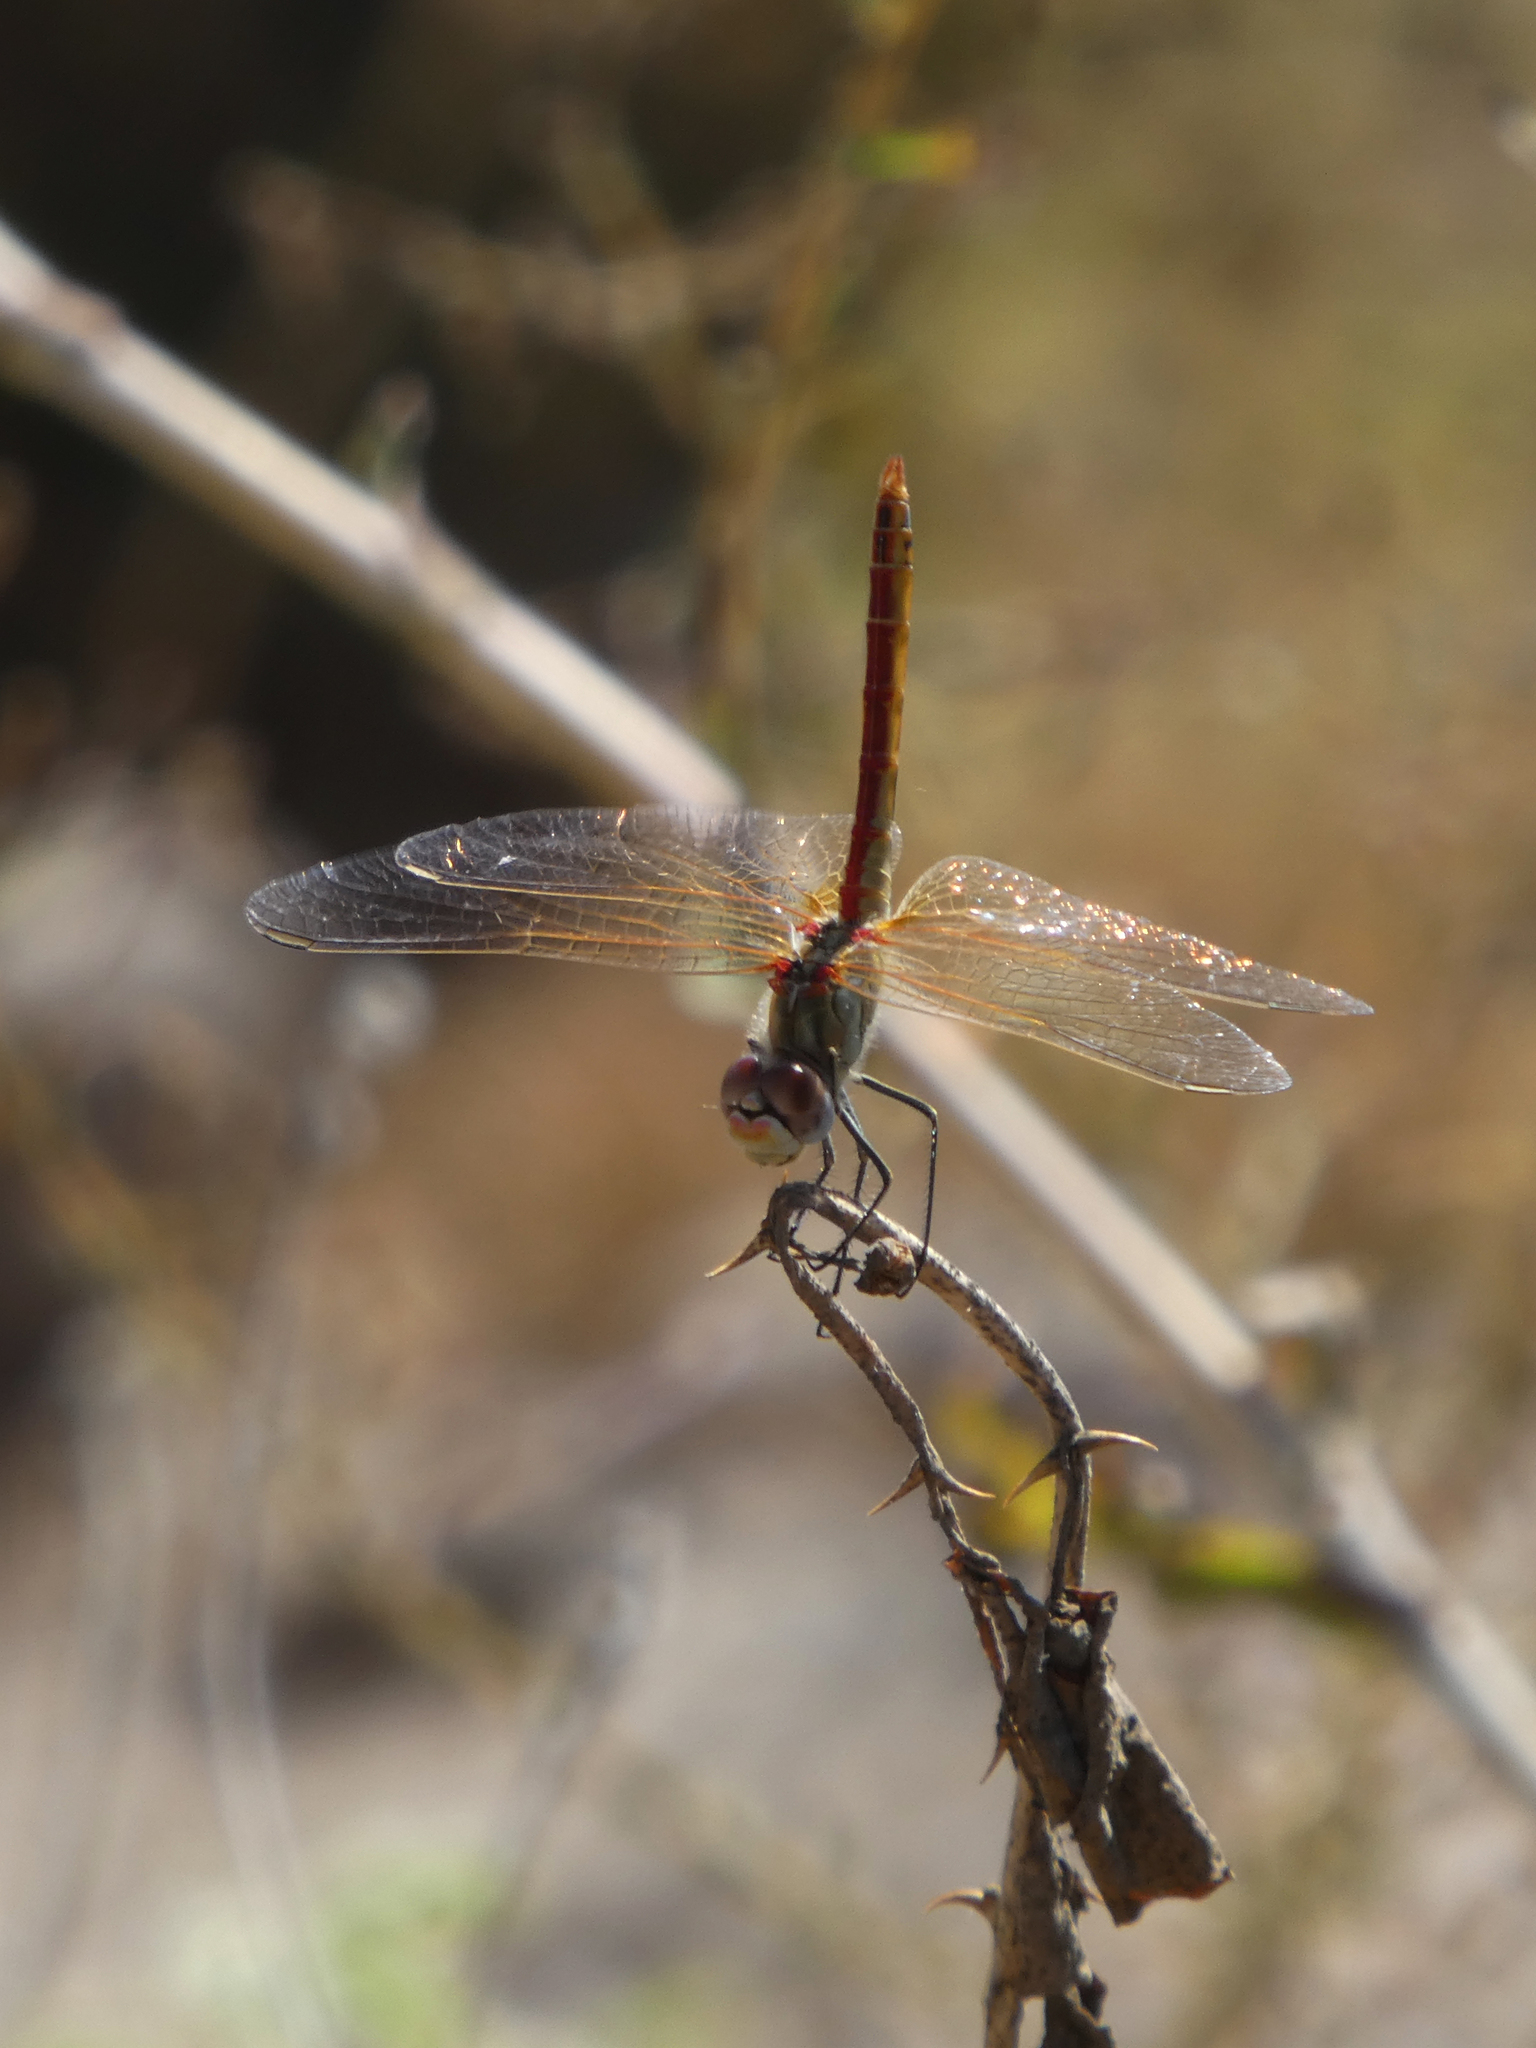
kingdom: Animalia
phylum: Arthropoda
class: Insecta
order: Odonata
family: Libellulidae
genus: Sympetrum
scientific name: Sympetrum fonscolombii
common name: Red-veined darter
